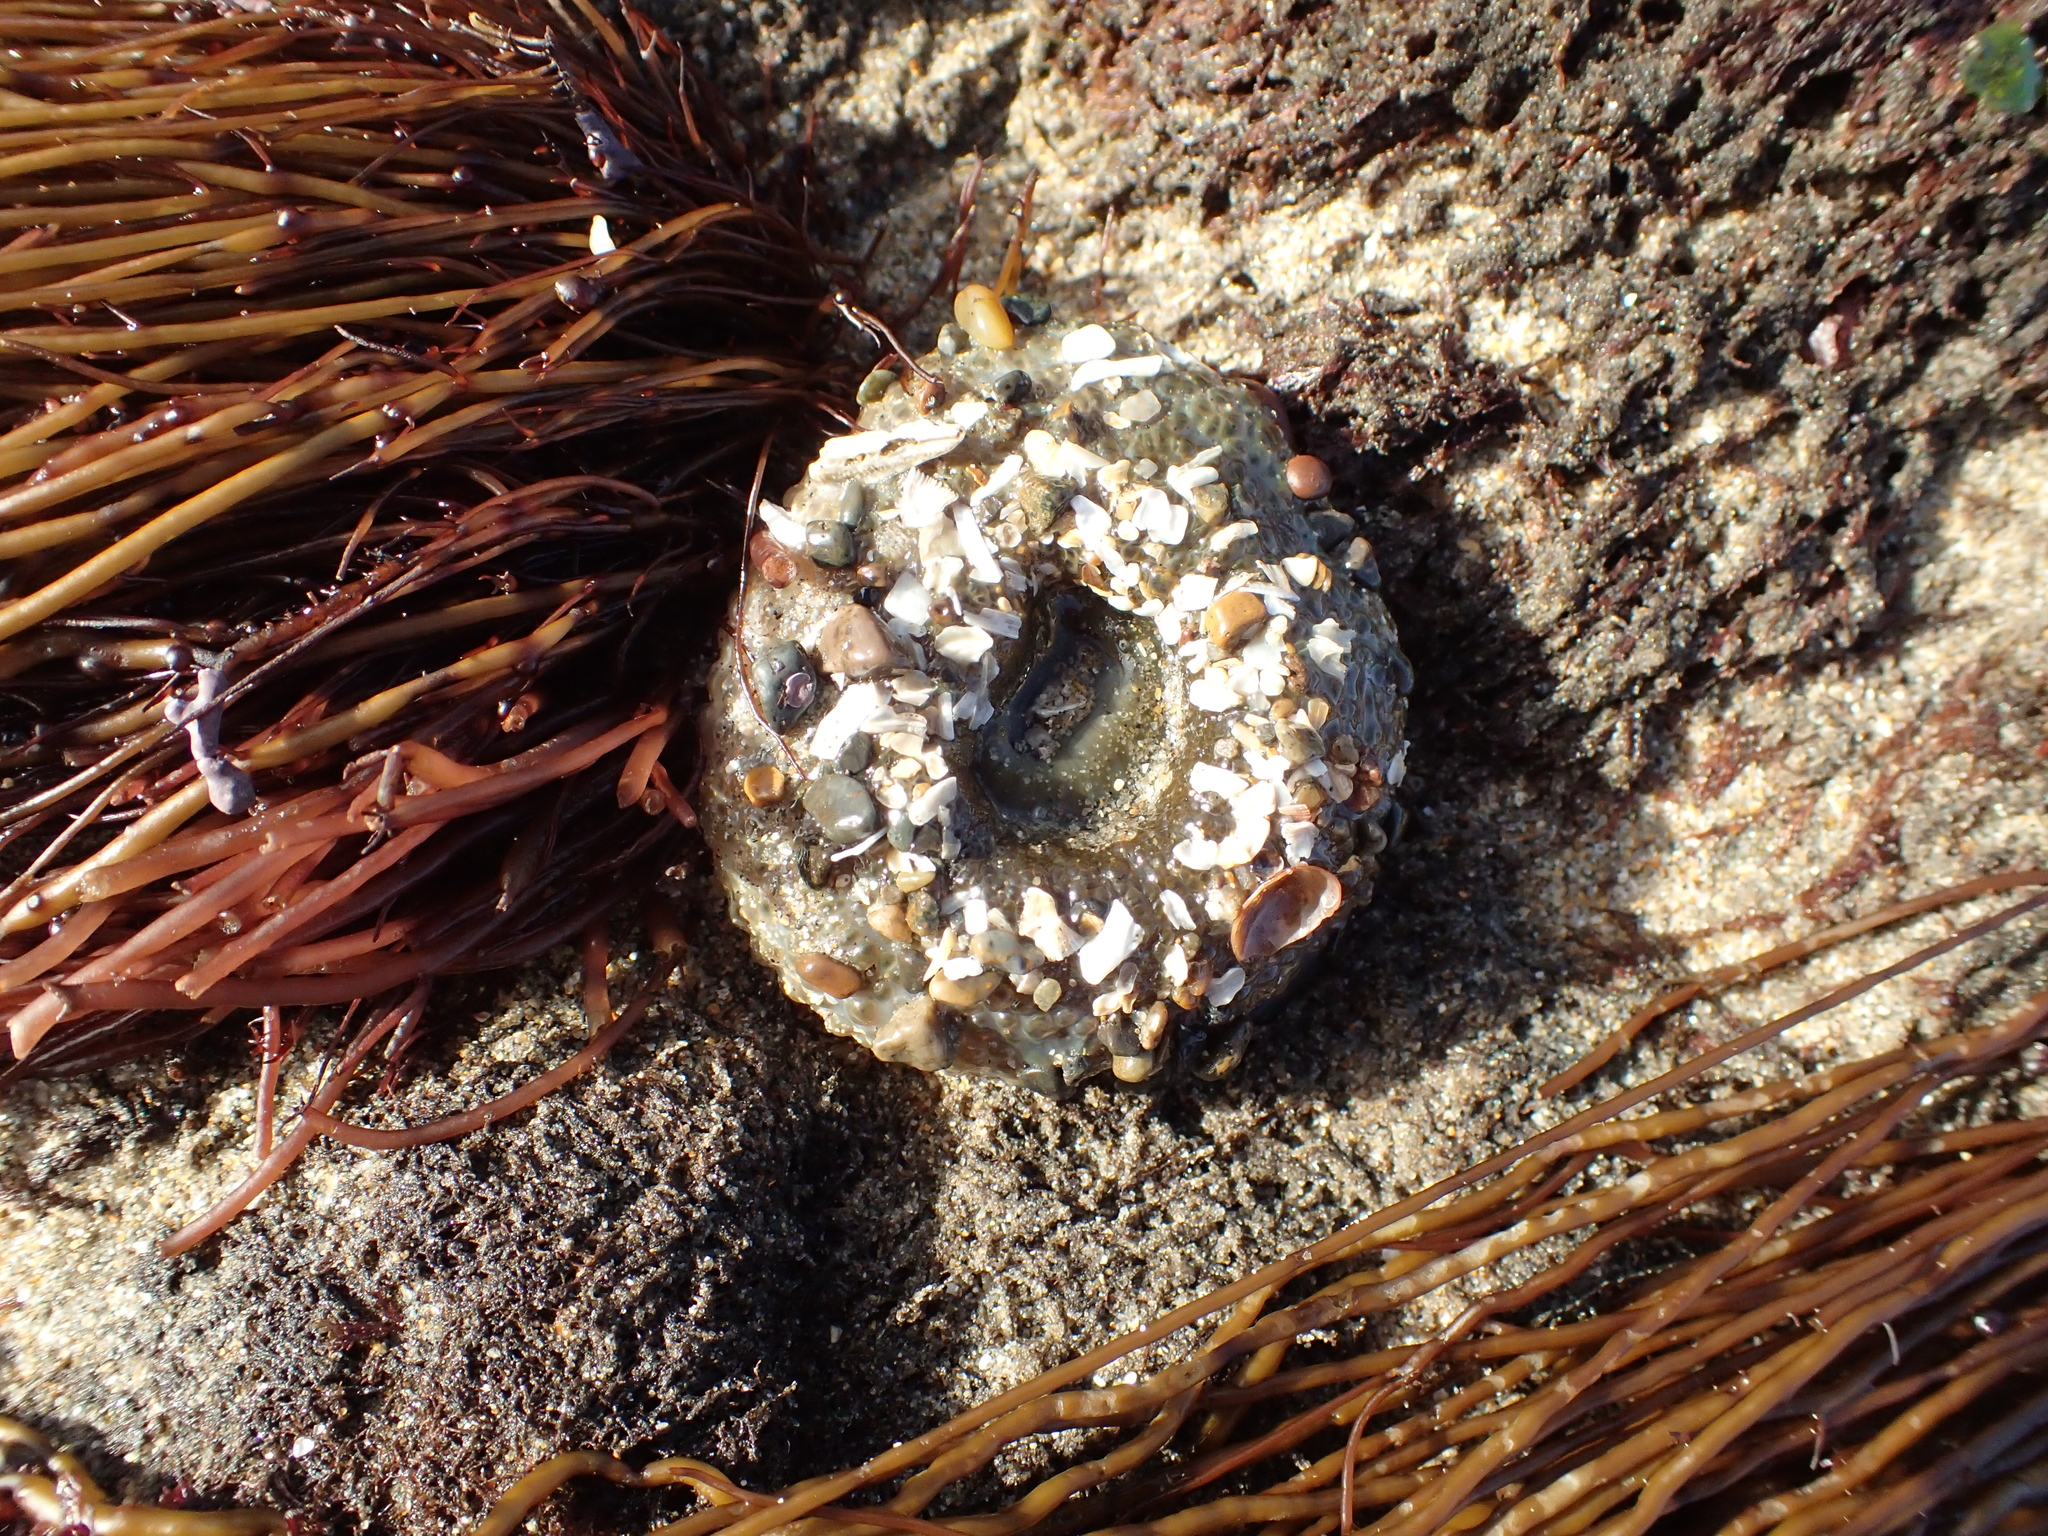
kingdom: Animalia
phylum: Cnidaria
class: Anthozoa
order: Actiniaria
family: Actiniidae
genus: Anthopleura
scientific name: Anthopleura xanthogrammica
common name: Giant green anemone
